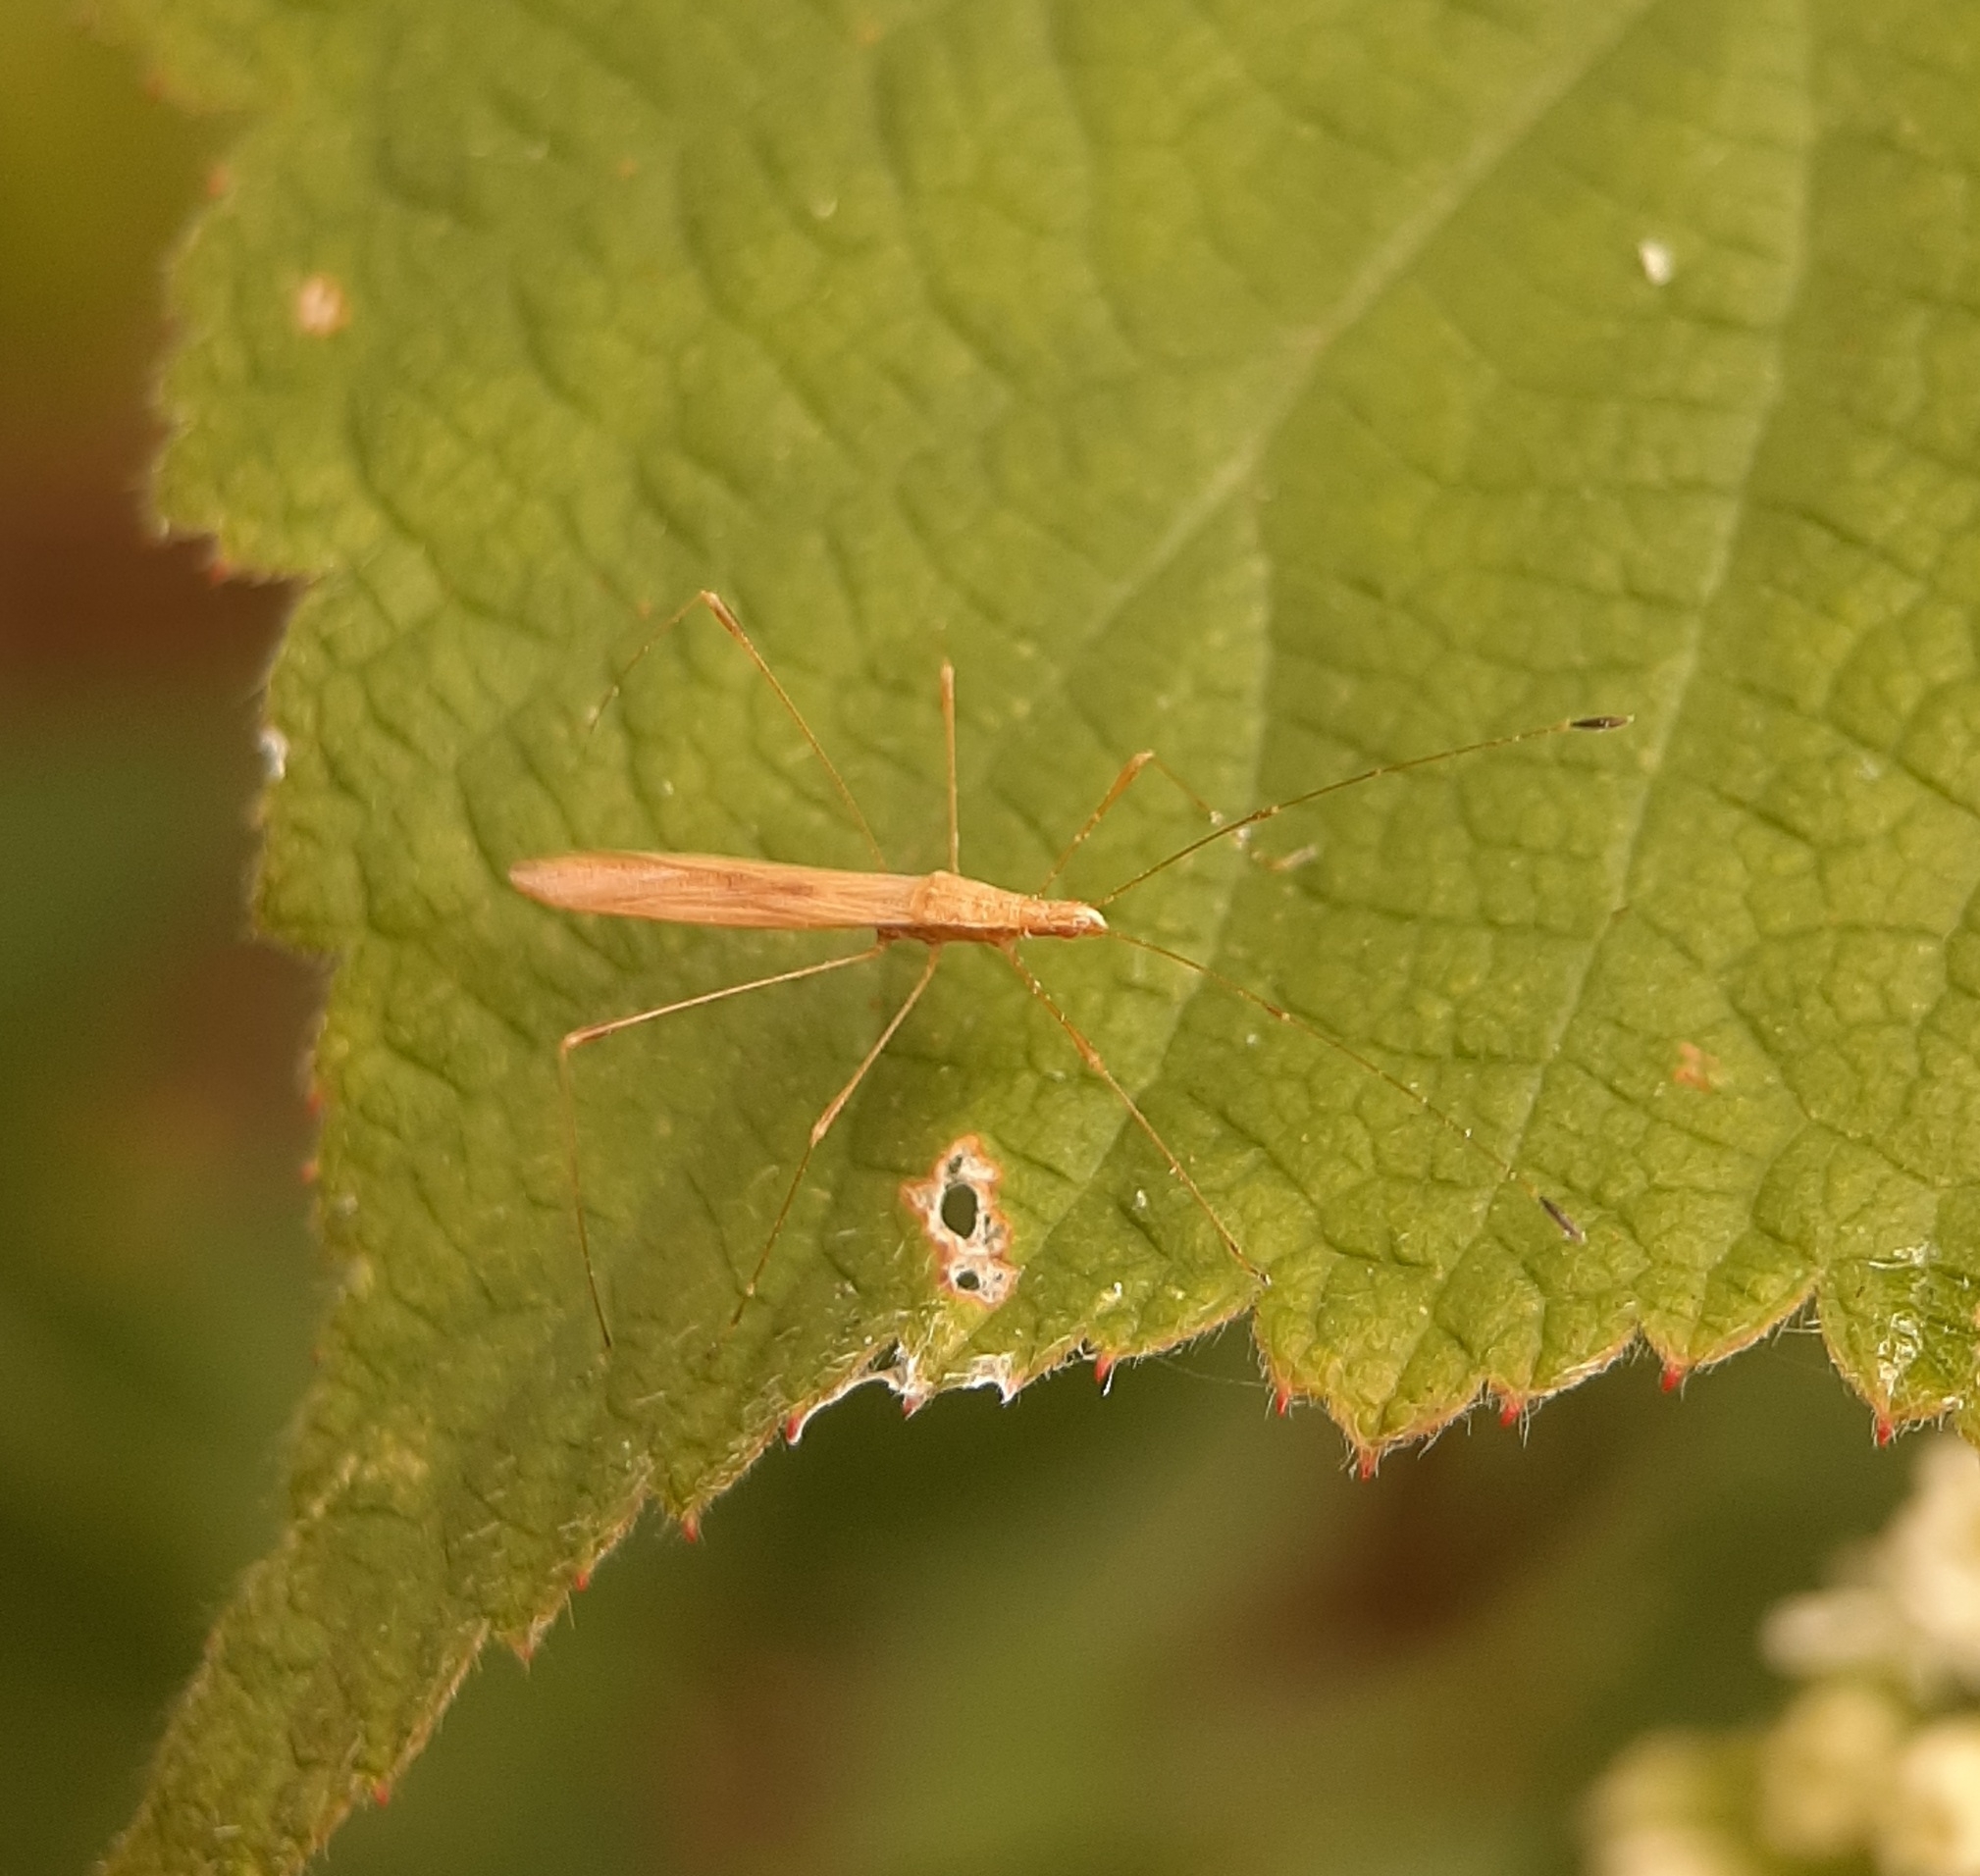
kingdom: Animalia
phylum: Arthropoda
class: Insecta
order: Hemiptera
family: Berytidae
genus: Neoneides
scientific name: Neoneides muticus
